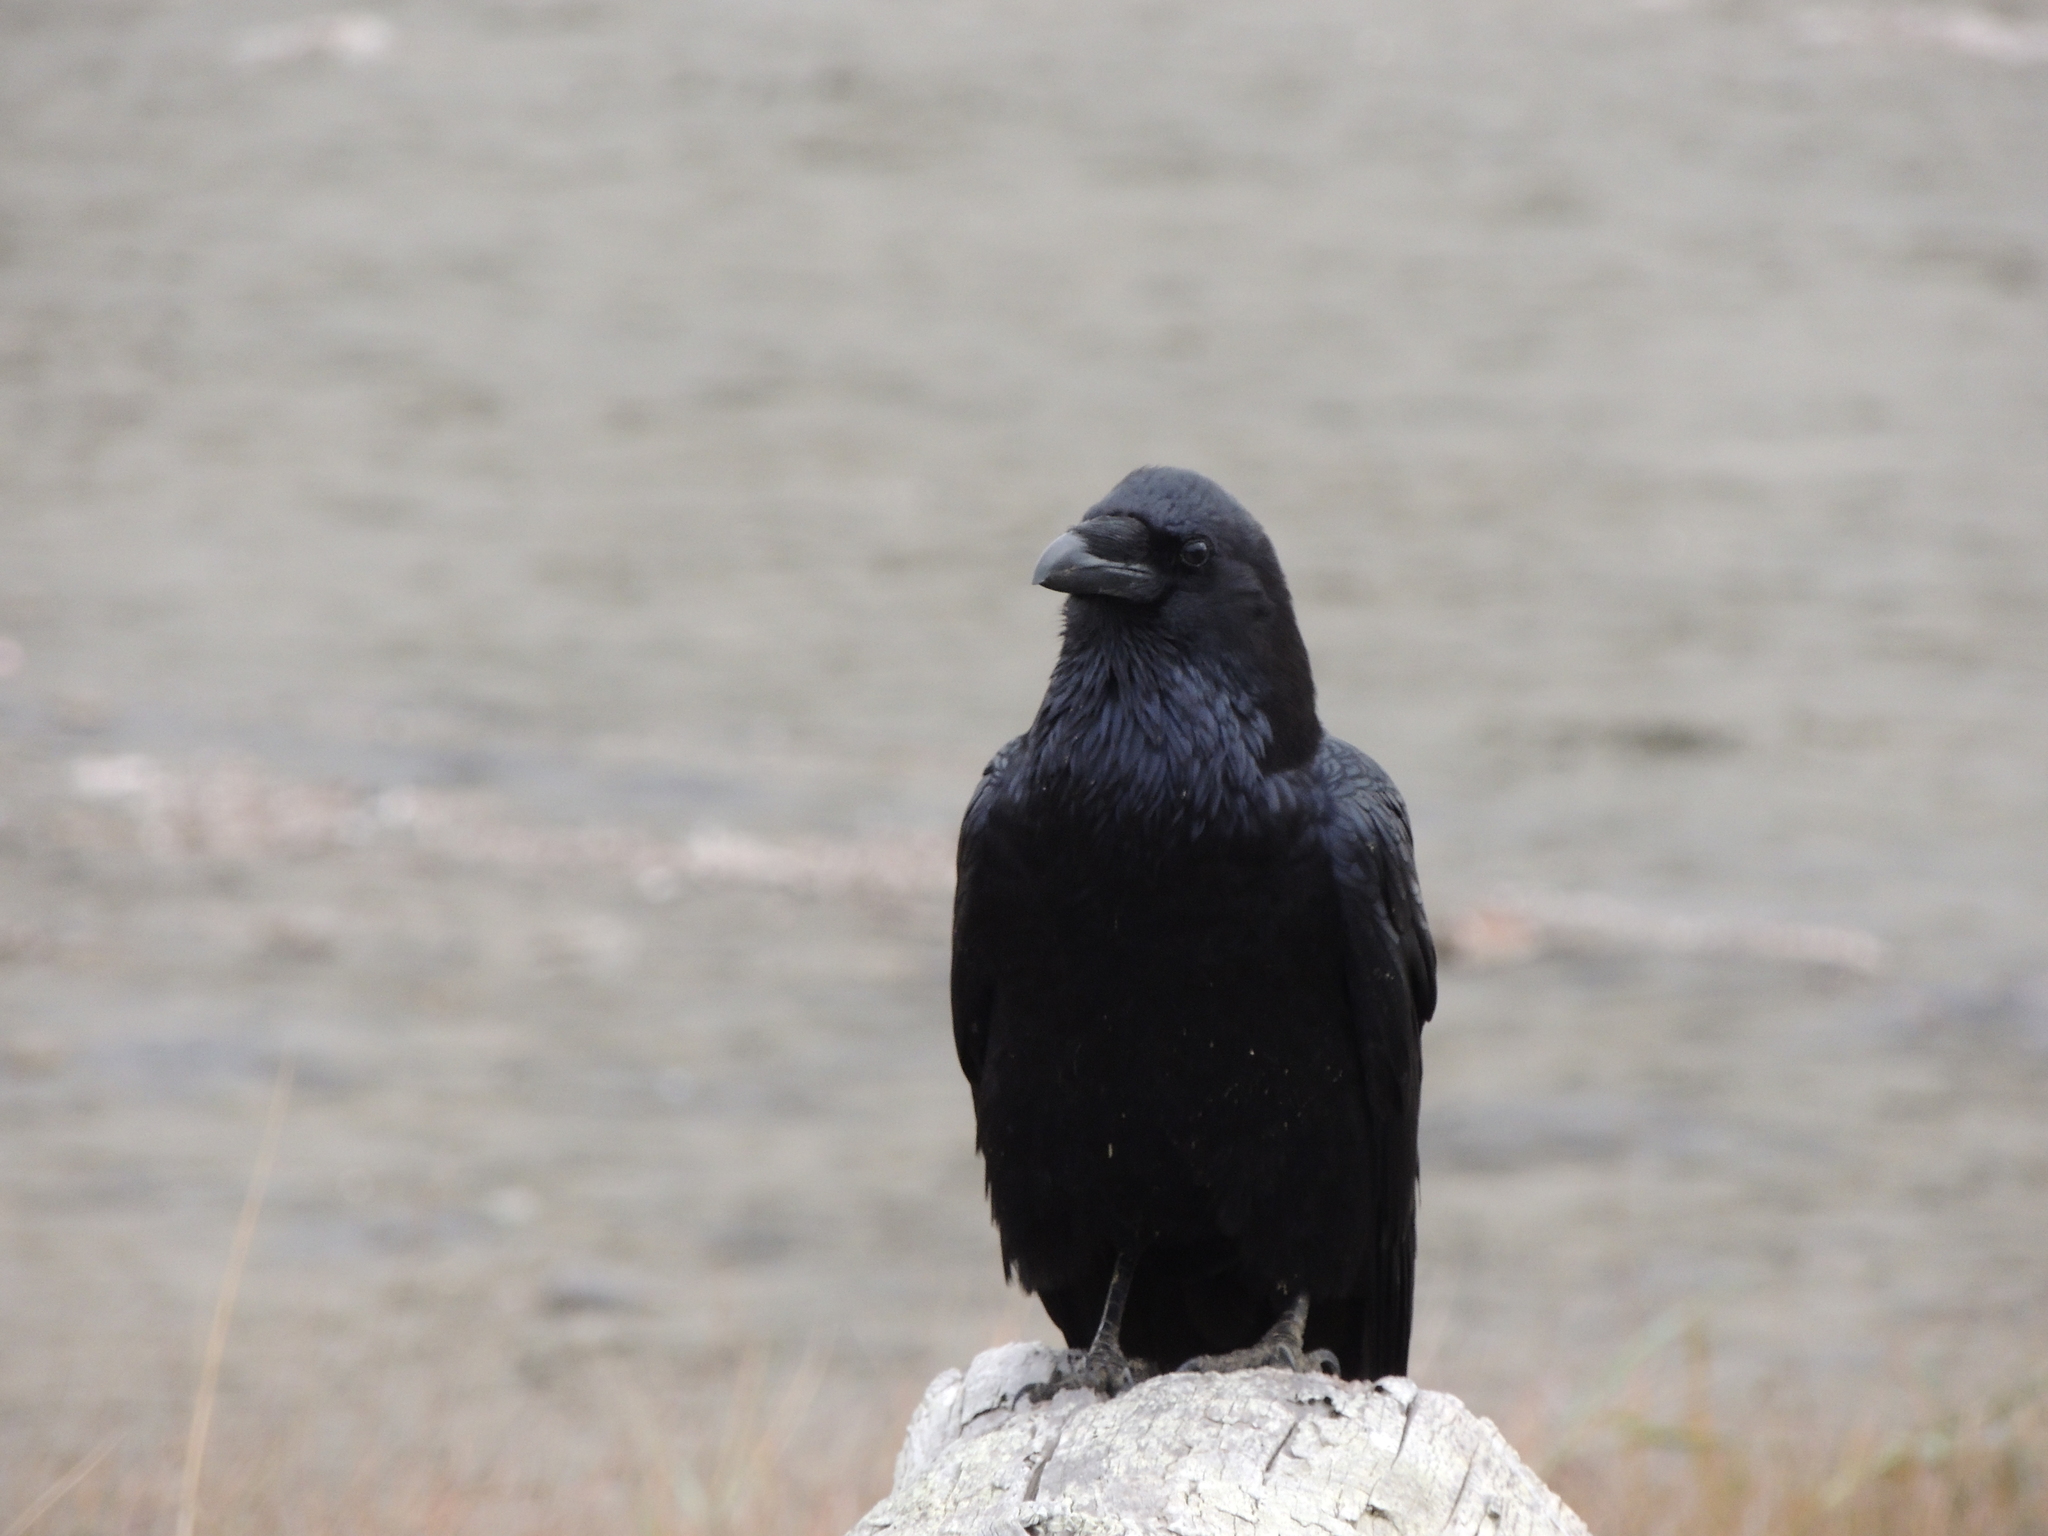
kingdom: Animalia
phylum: Chordata
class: Aves
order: Passeriformes
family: Corvidae
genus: Corvus
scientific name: Corvus corax
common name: Common raven
